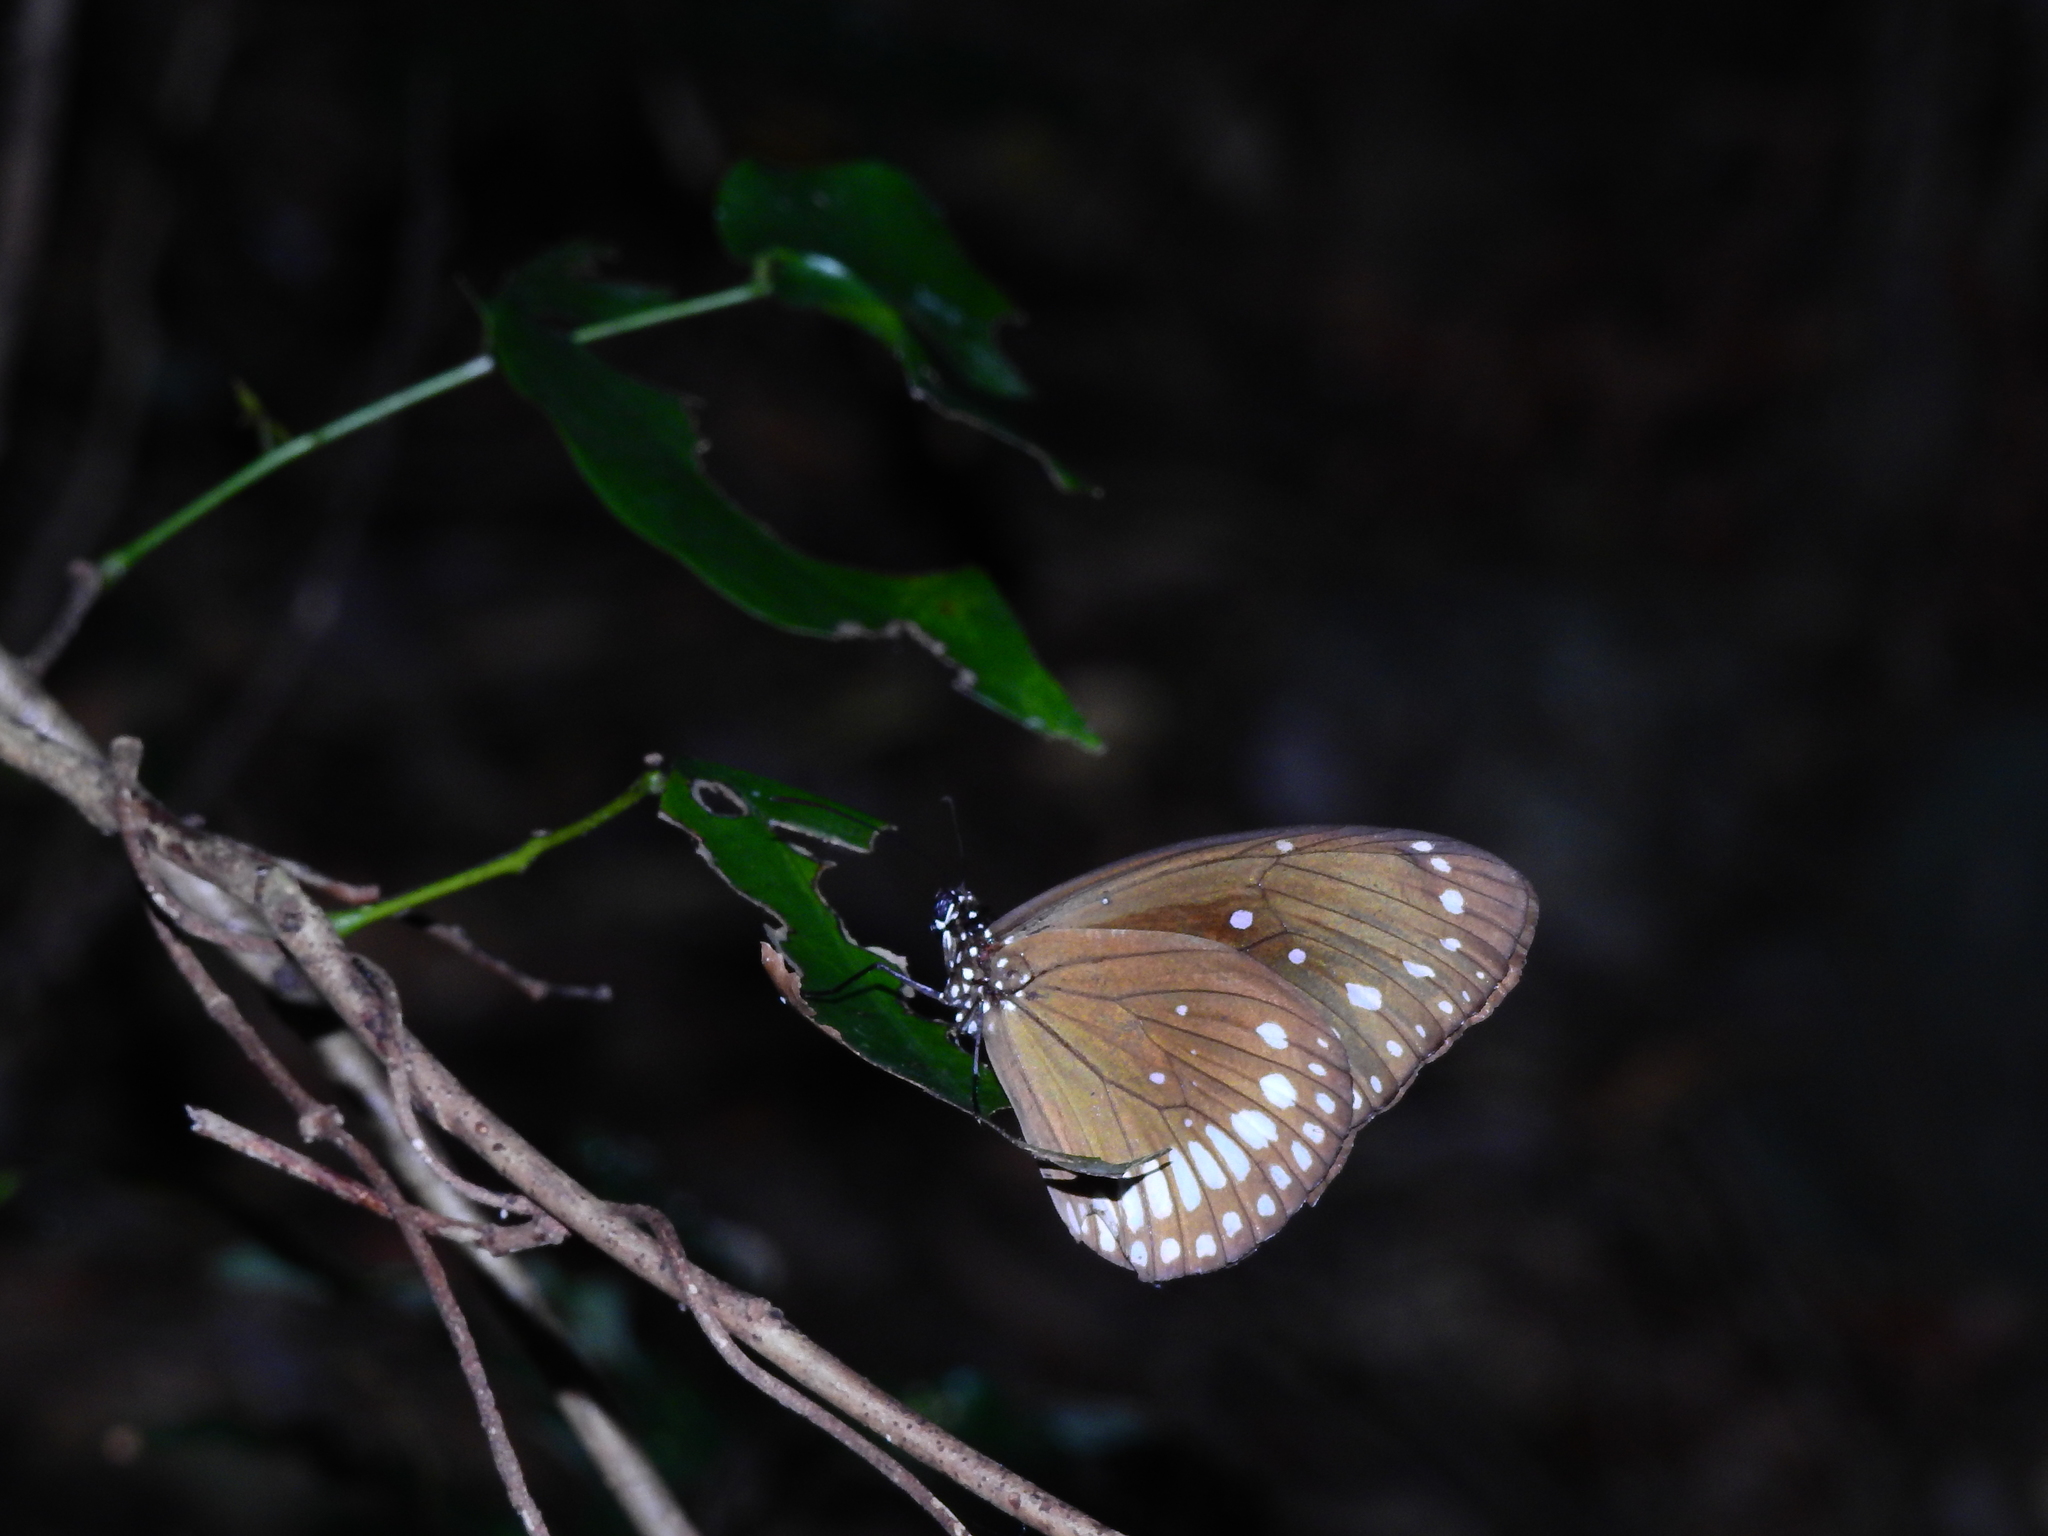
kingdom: Animalia
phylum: Arthropoda
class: Insecta
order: Lepidoptera
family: Nymphalidae
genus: Euploea
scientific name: Euploea core
